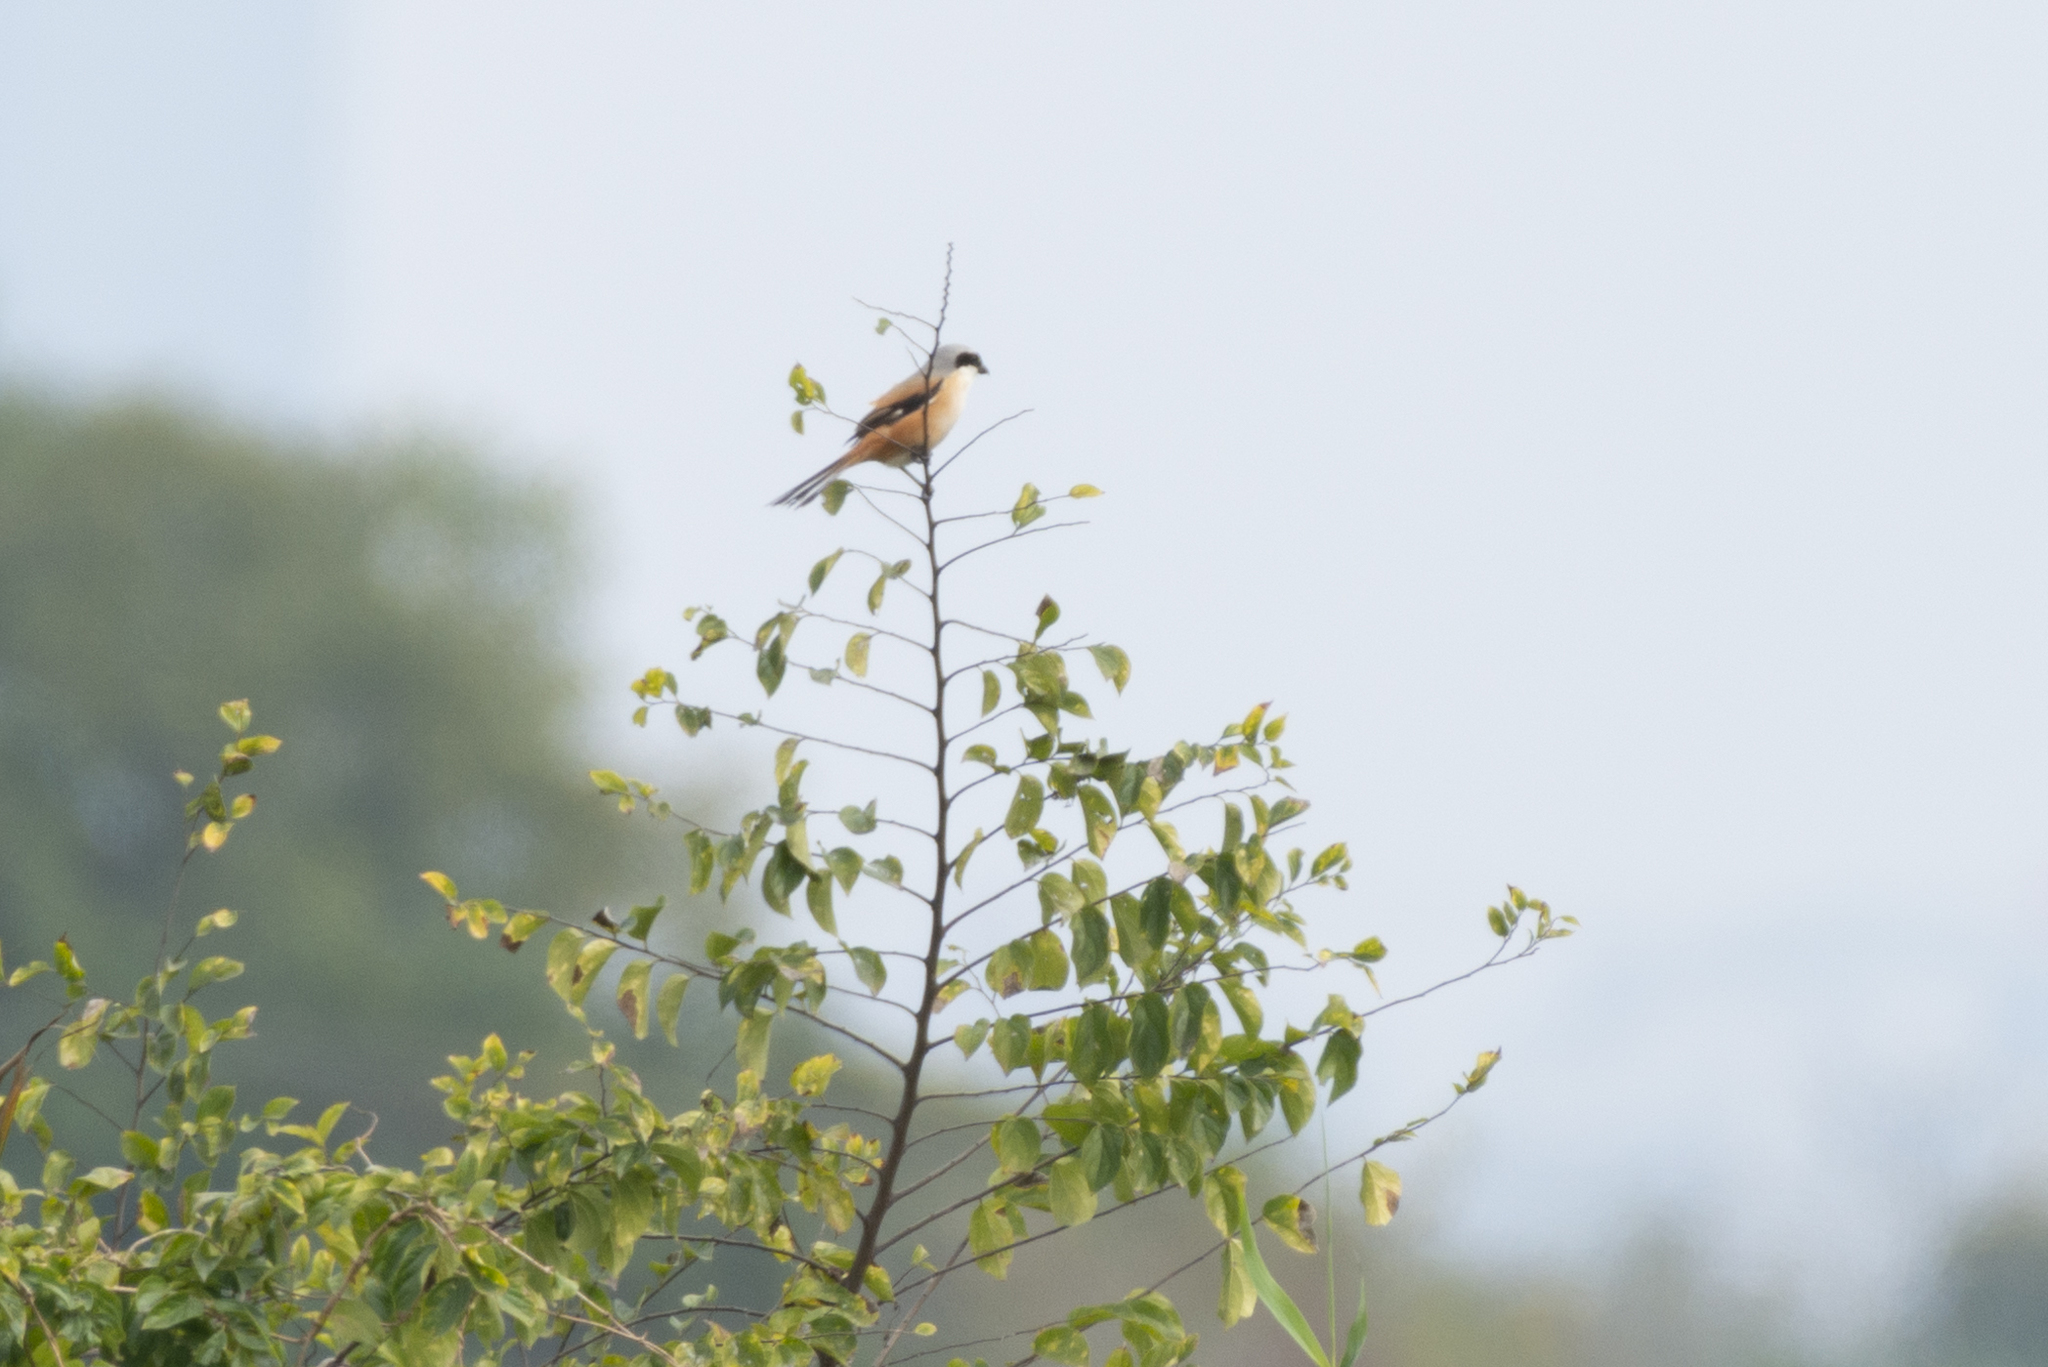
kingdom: Animalia
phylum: Chordata
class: Aves
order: Passeriformes
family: Laniidae
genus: Lanius
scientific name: Lanius schach
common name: Long-tailed shrike
